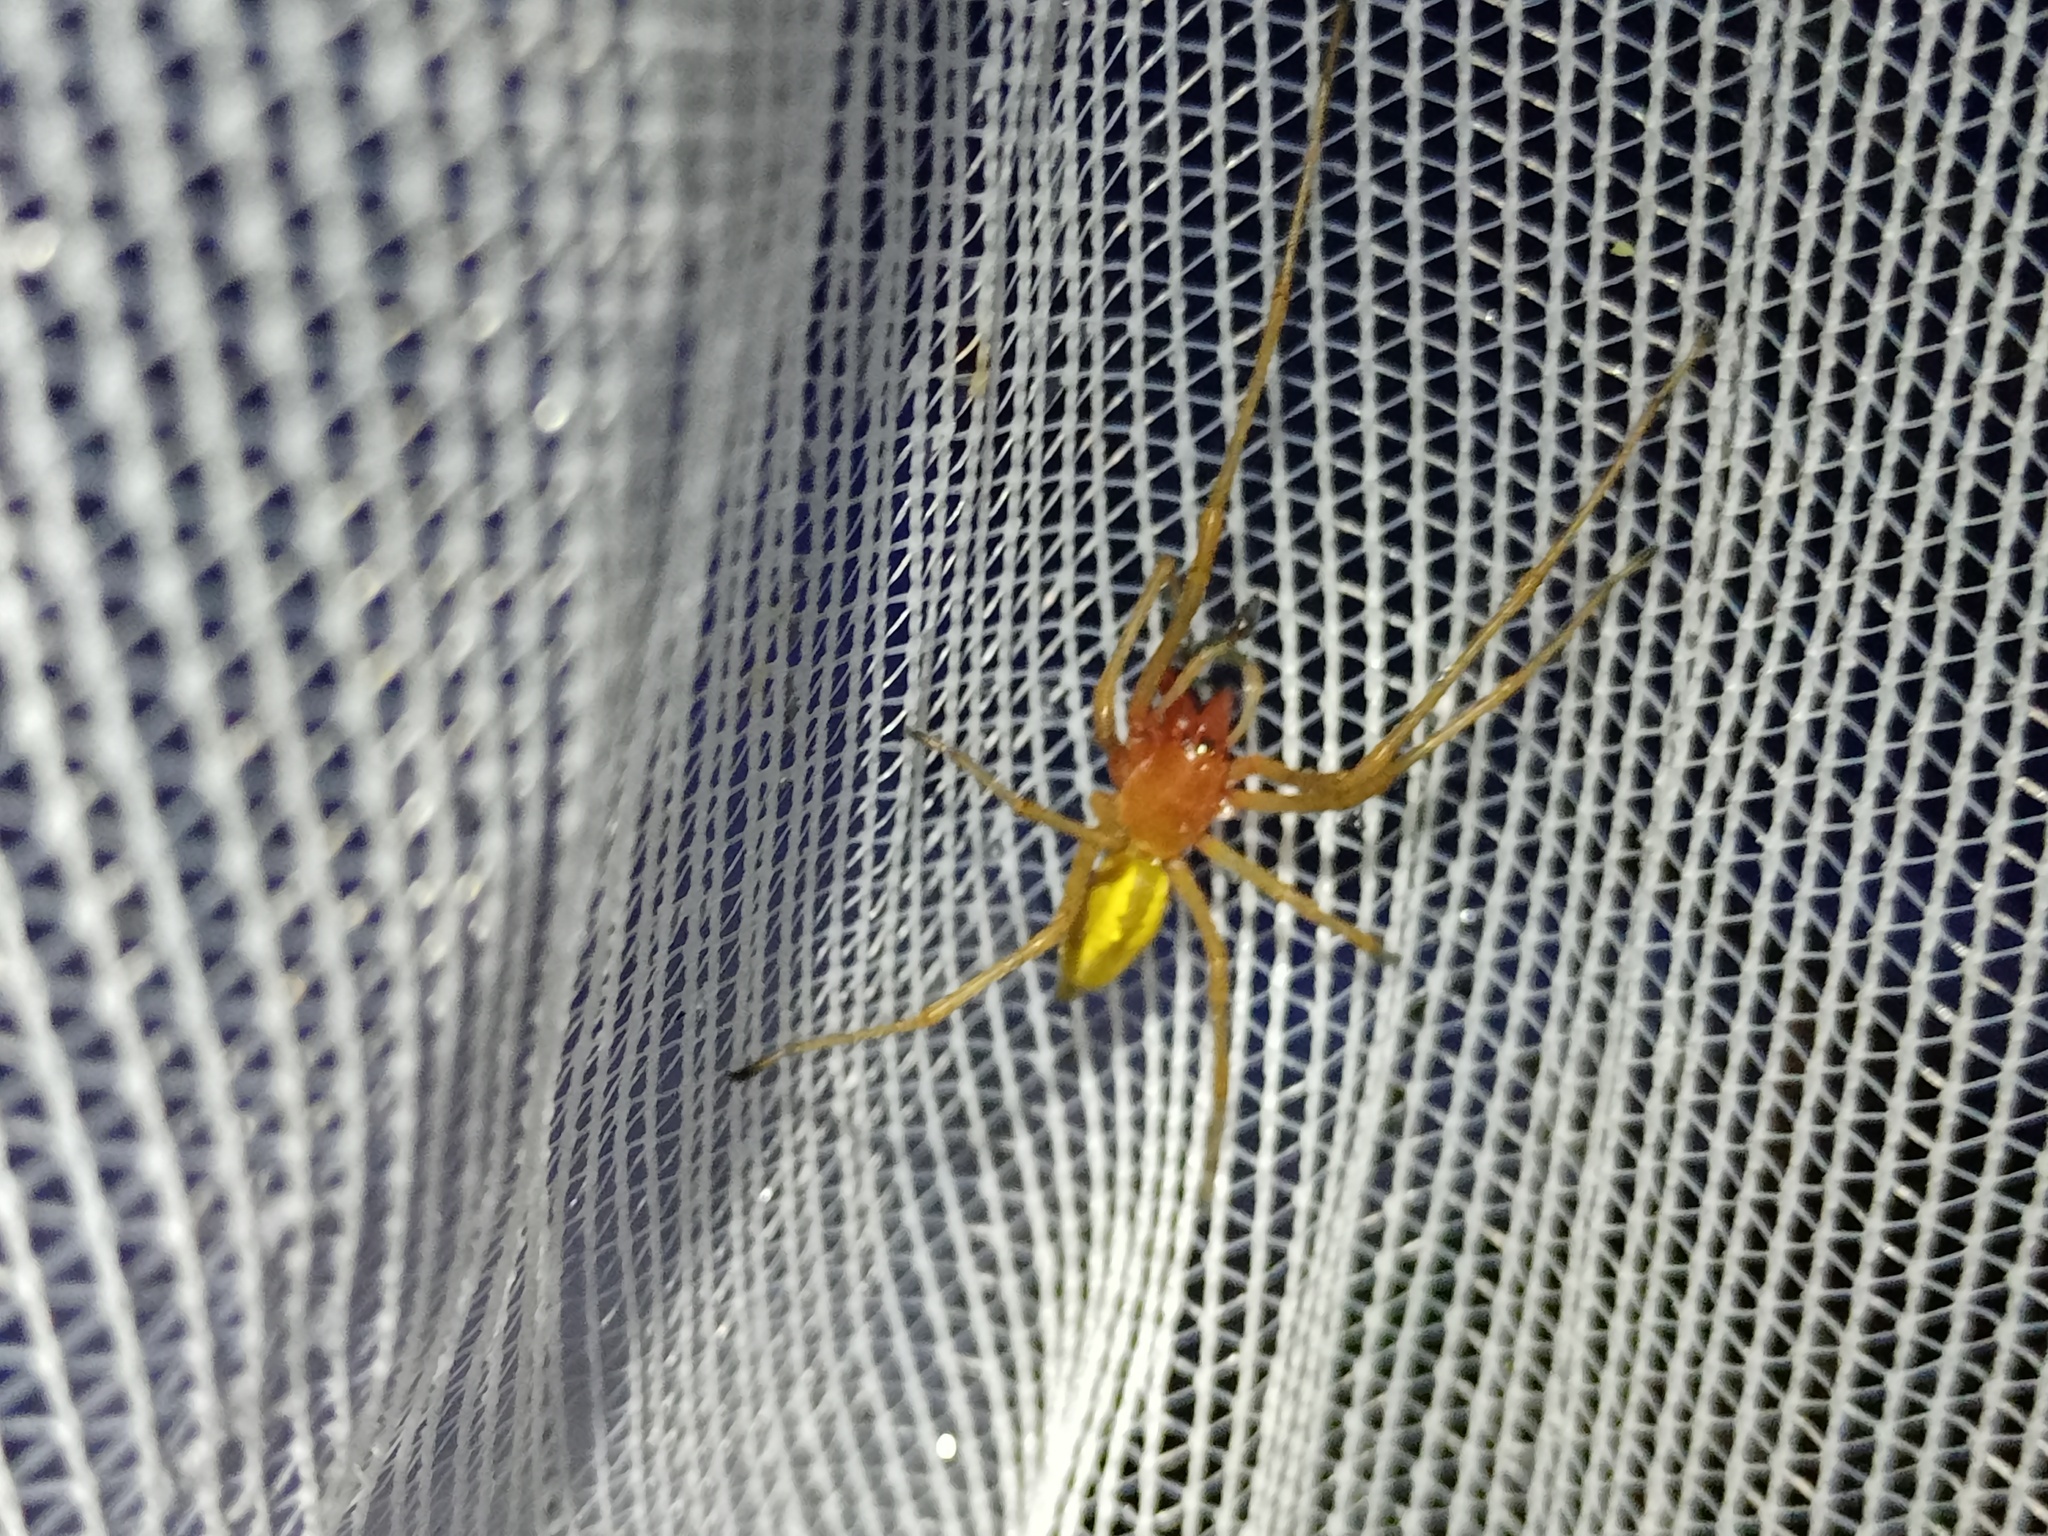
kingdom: Animalia
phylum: Arthropoda
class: Arachnida
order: Araneae
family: Cheiracanthiidae
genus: Cheiracanthium
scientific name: Cheiracanthium punctorium
